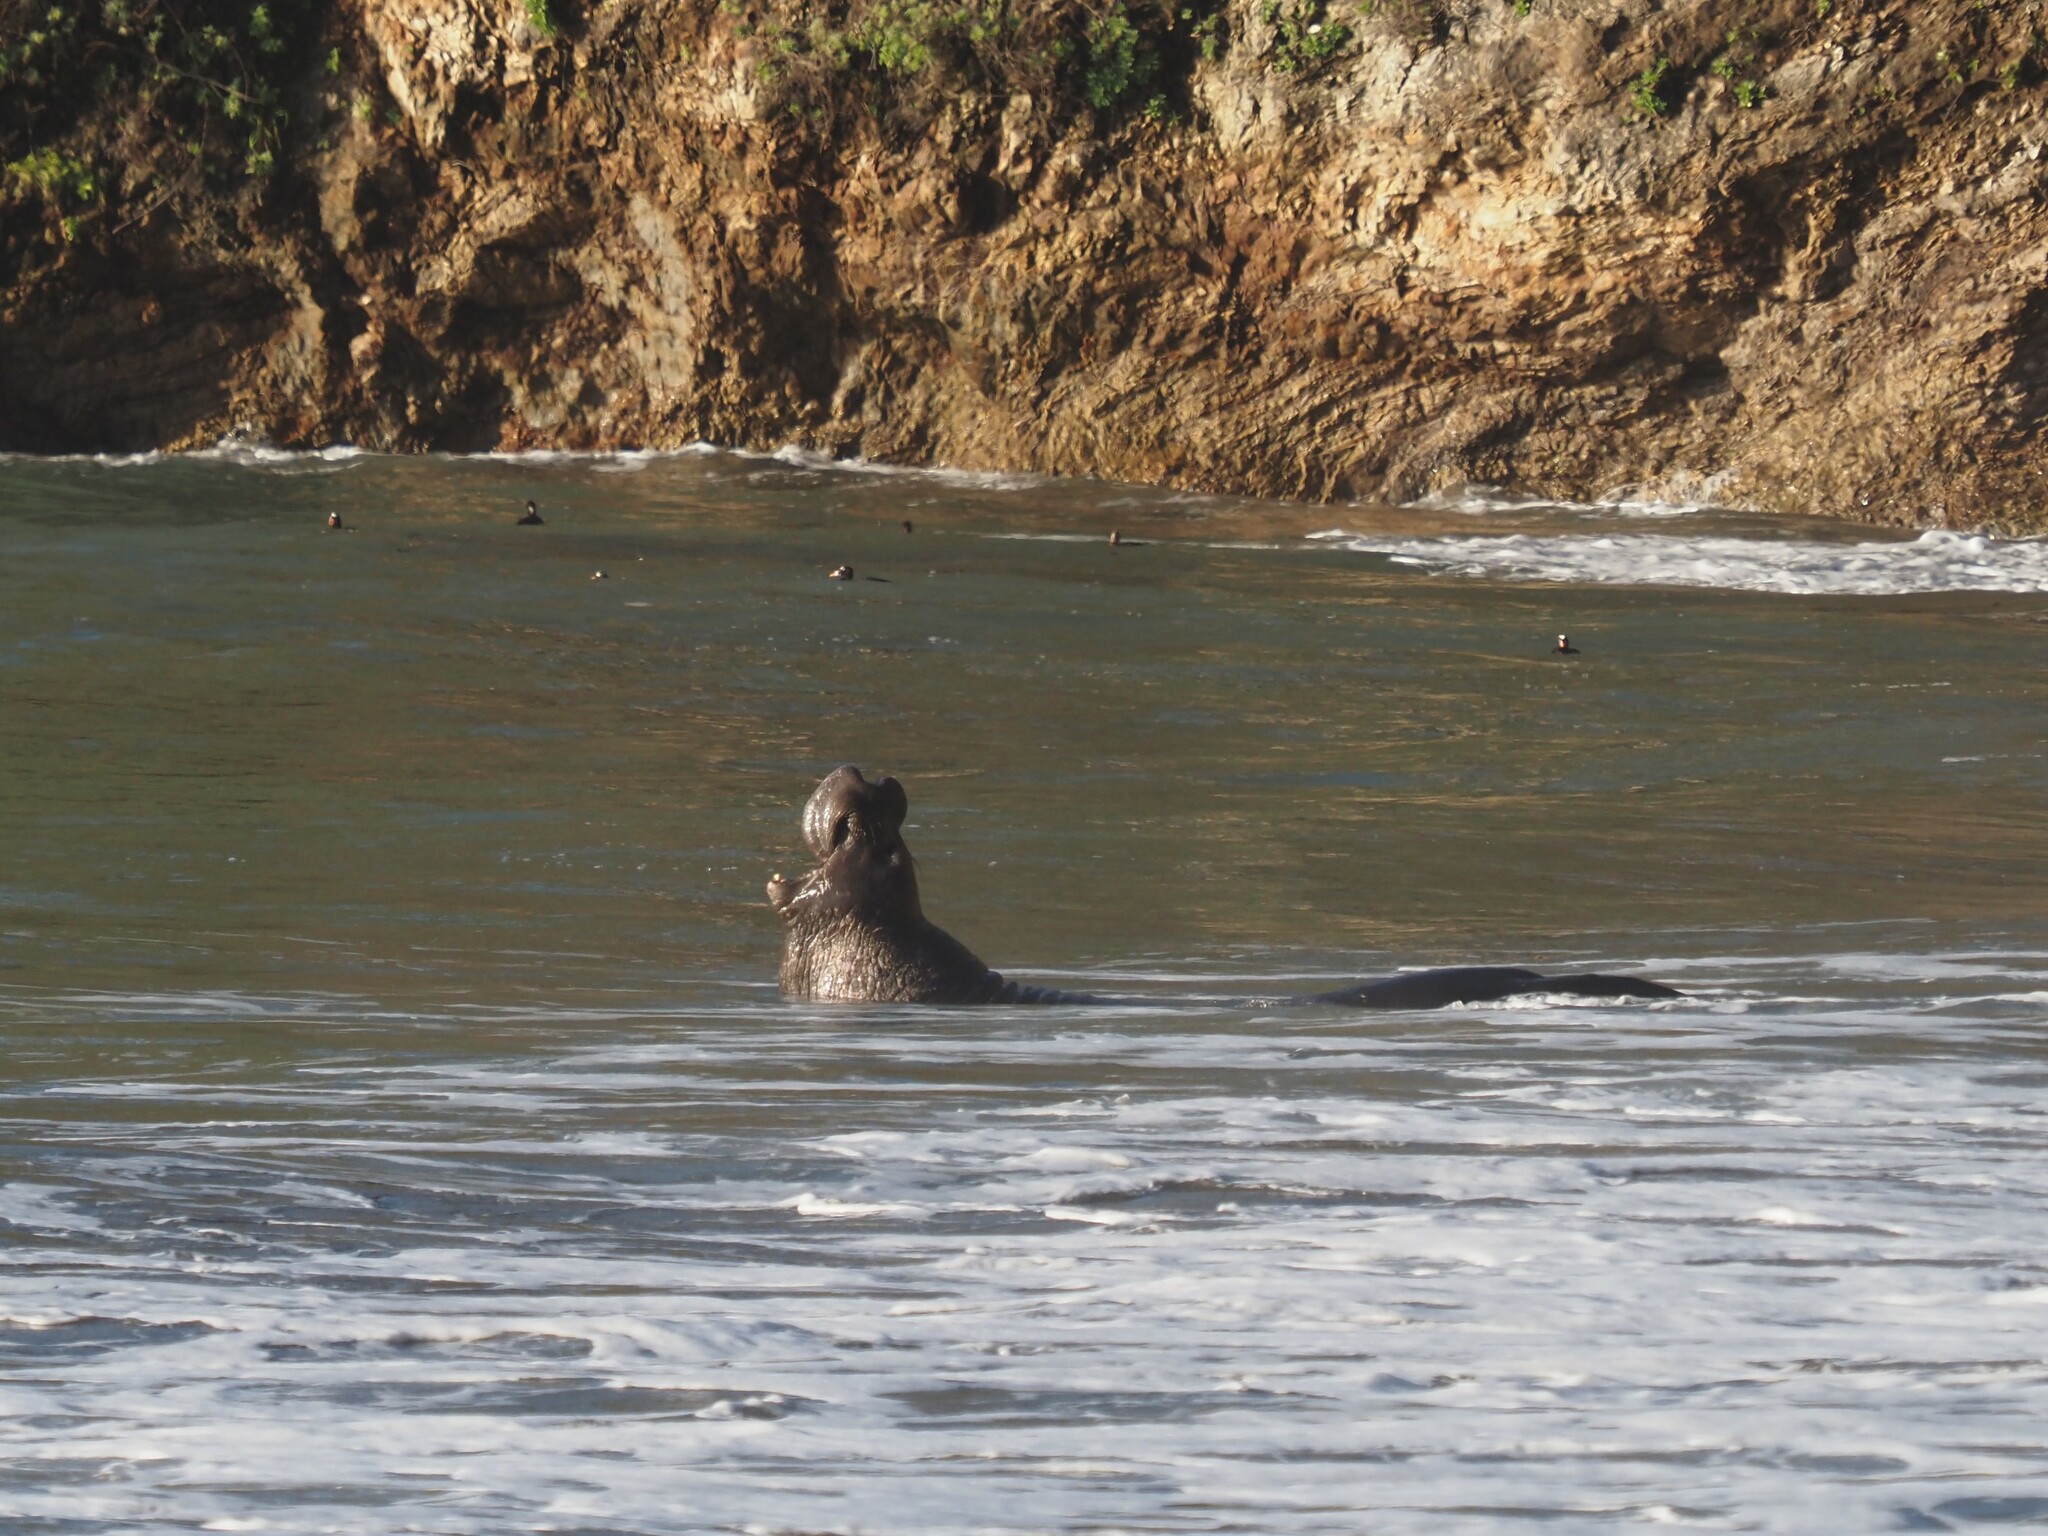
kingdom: Animalia
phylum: Chordata
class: Mammalia
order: Carnivora
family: Phocidae
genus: Mirounga
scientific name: Mirounga angustirostris
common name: Northern elephant seal
